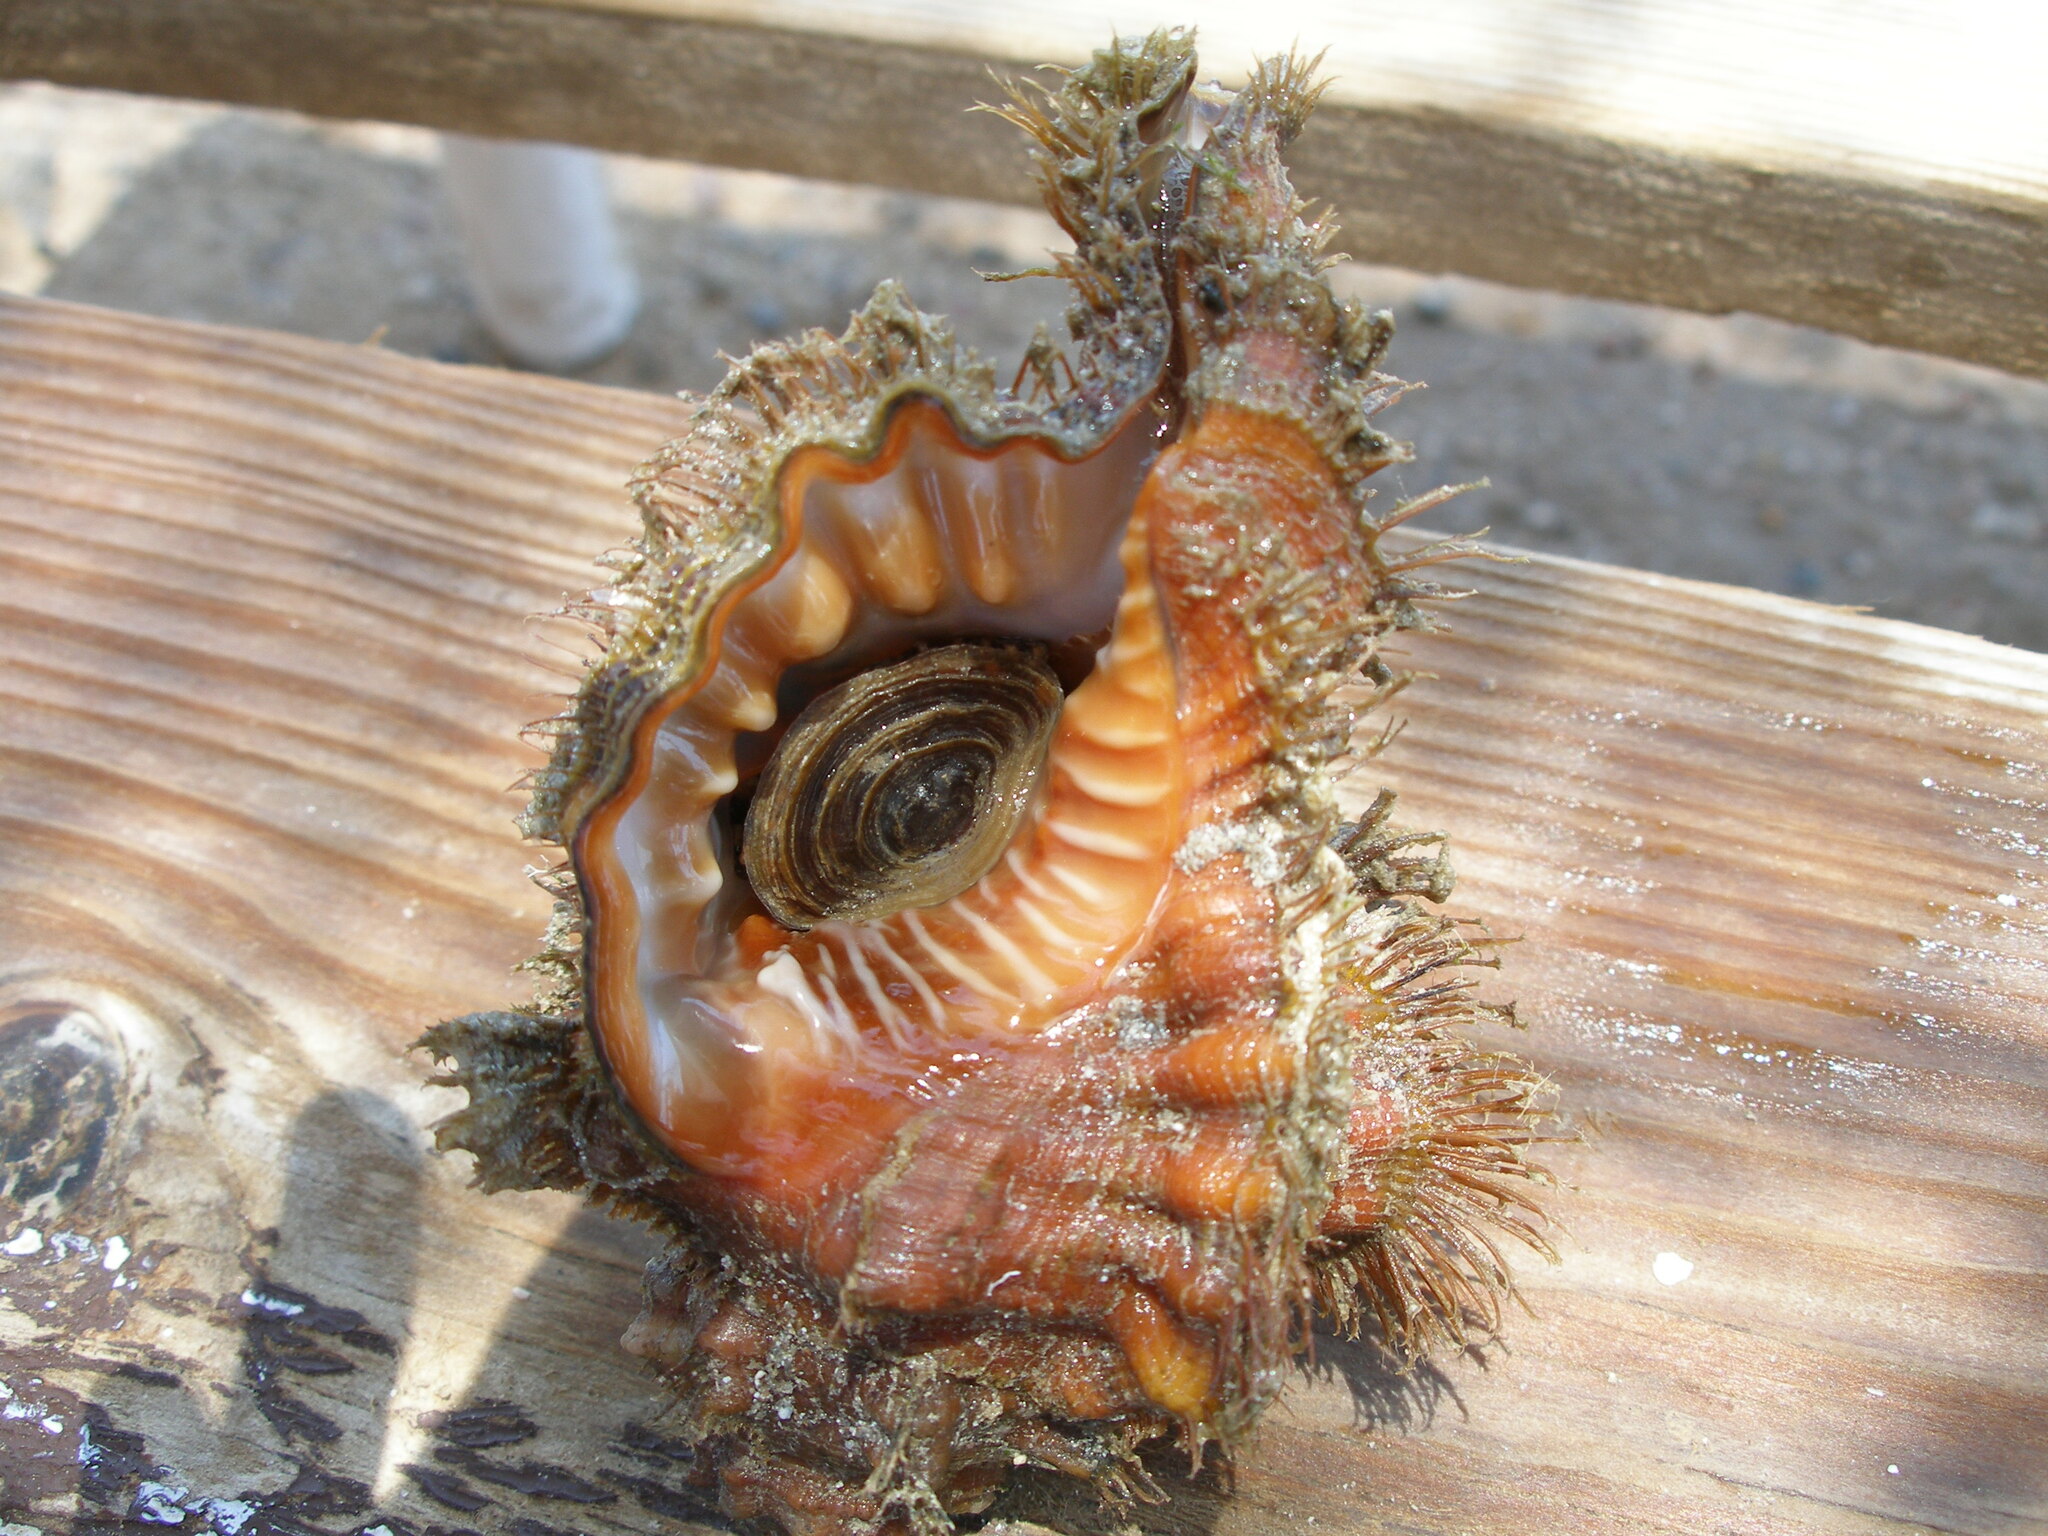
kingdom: Animalia
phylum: Mollusca
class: Gastropoda
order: Littorinimorpha
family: Cymatiidae
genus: Ranularia
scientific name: Ranularia pyrum
